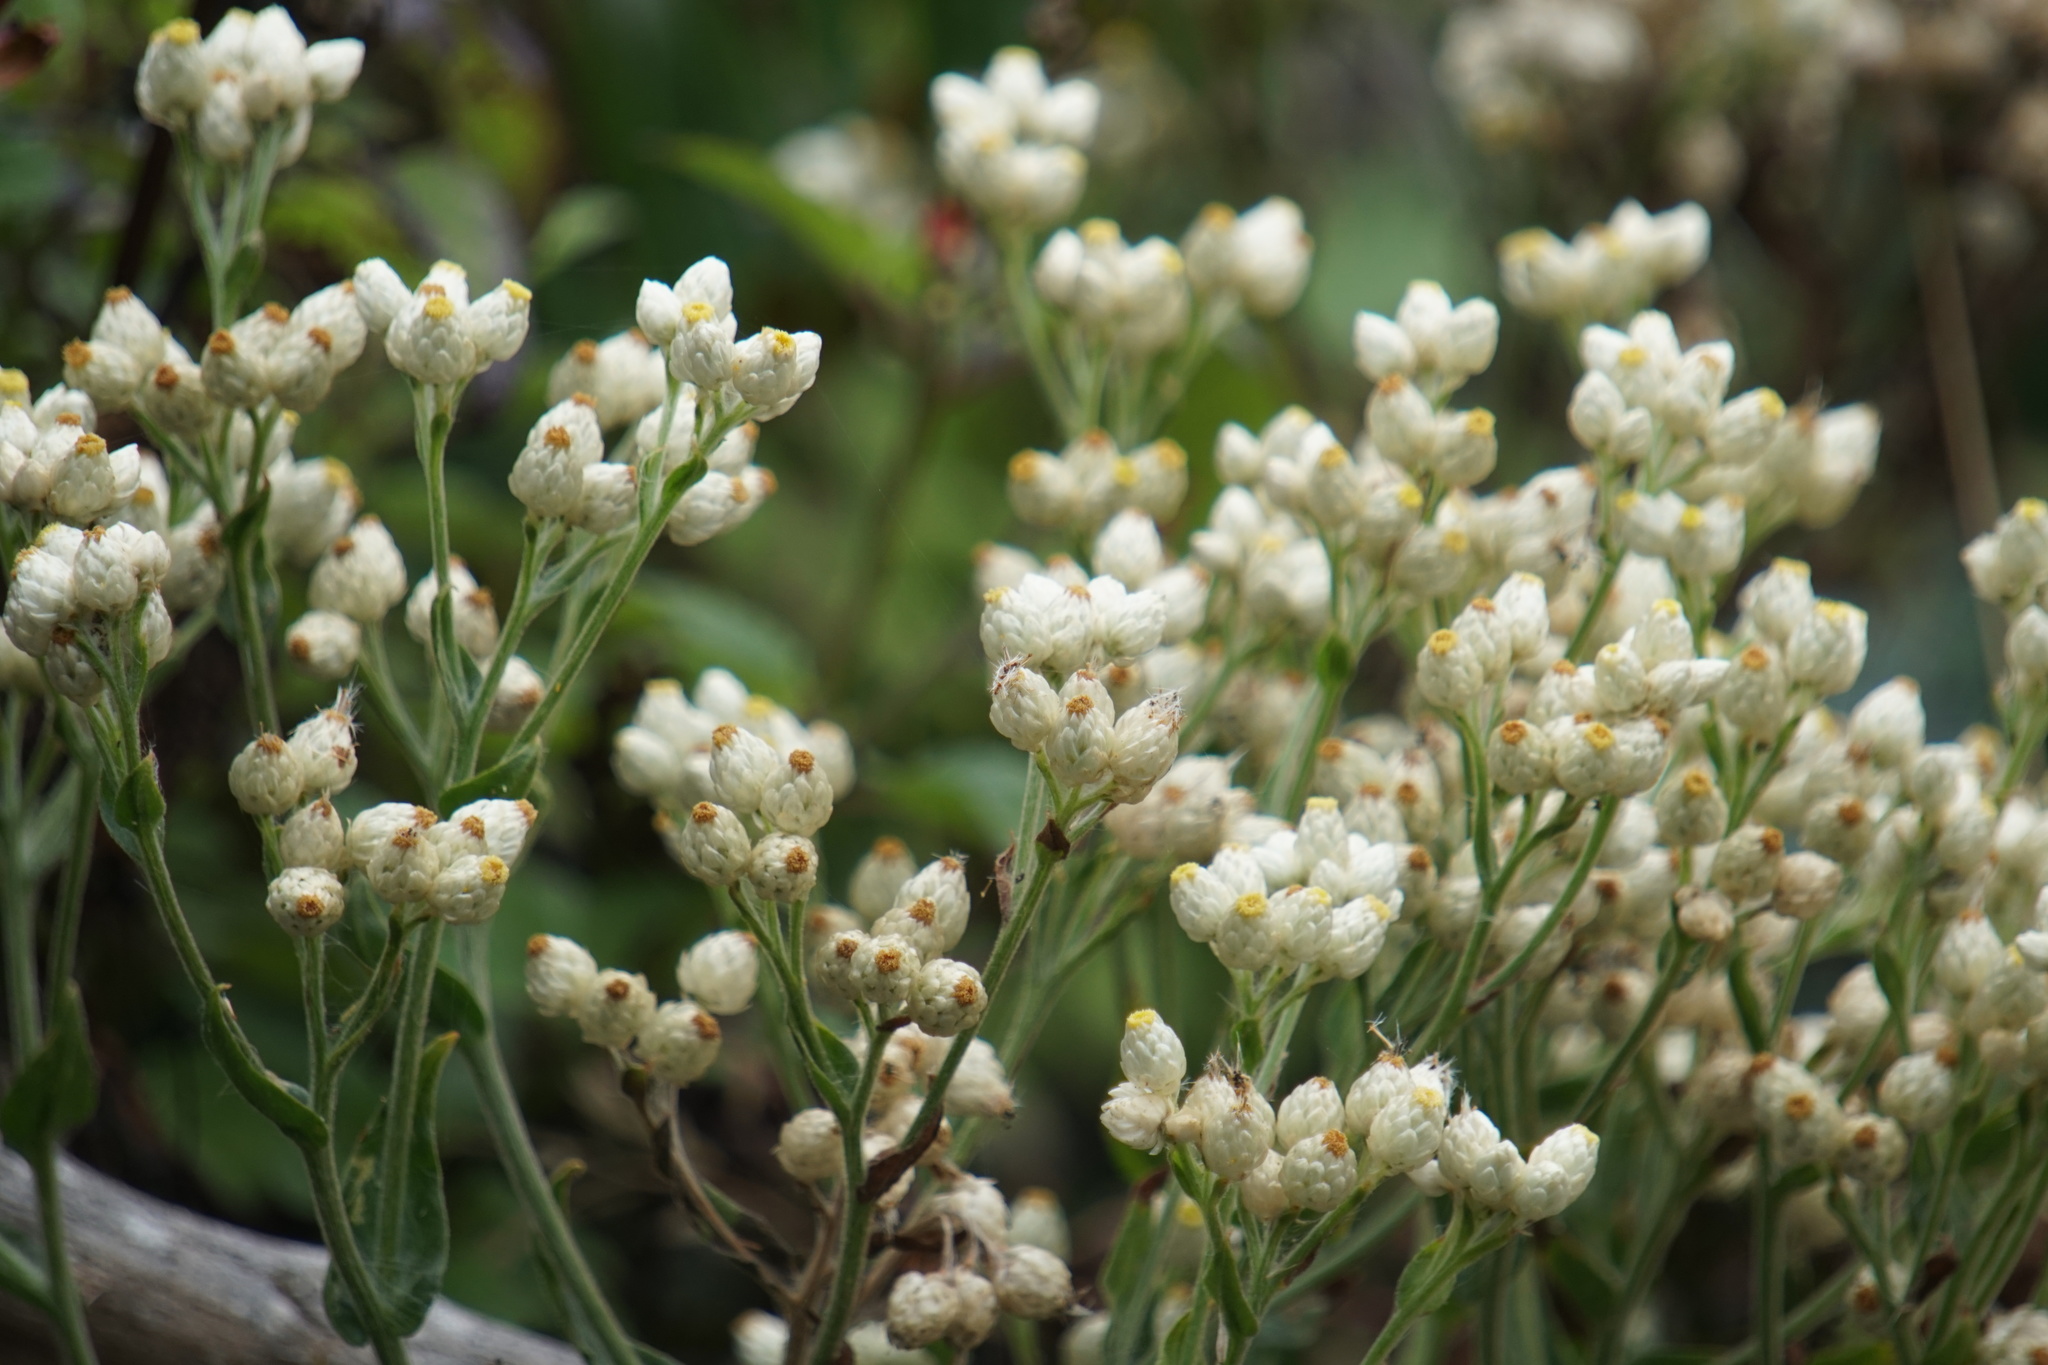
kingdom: Plantae
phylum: Tracheophyta
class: Magnoliopsida
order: Asterales
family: Asteraceae
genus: Anaphalis
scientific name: Anaphalis margaritacea
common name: Pearly everlasting
